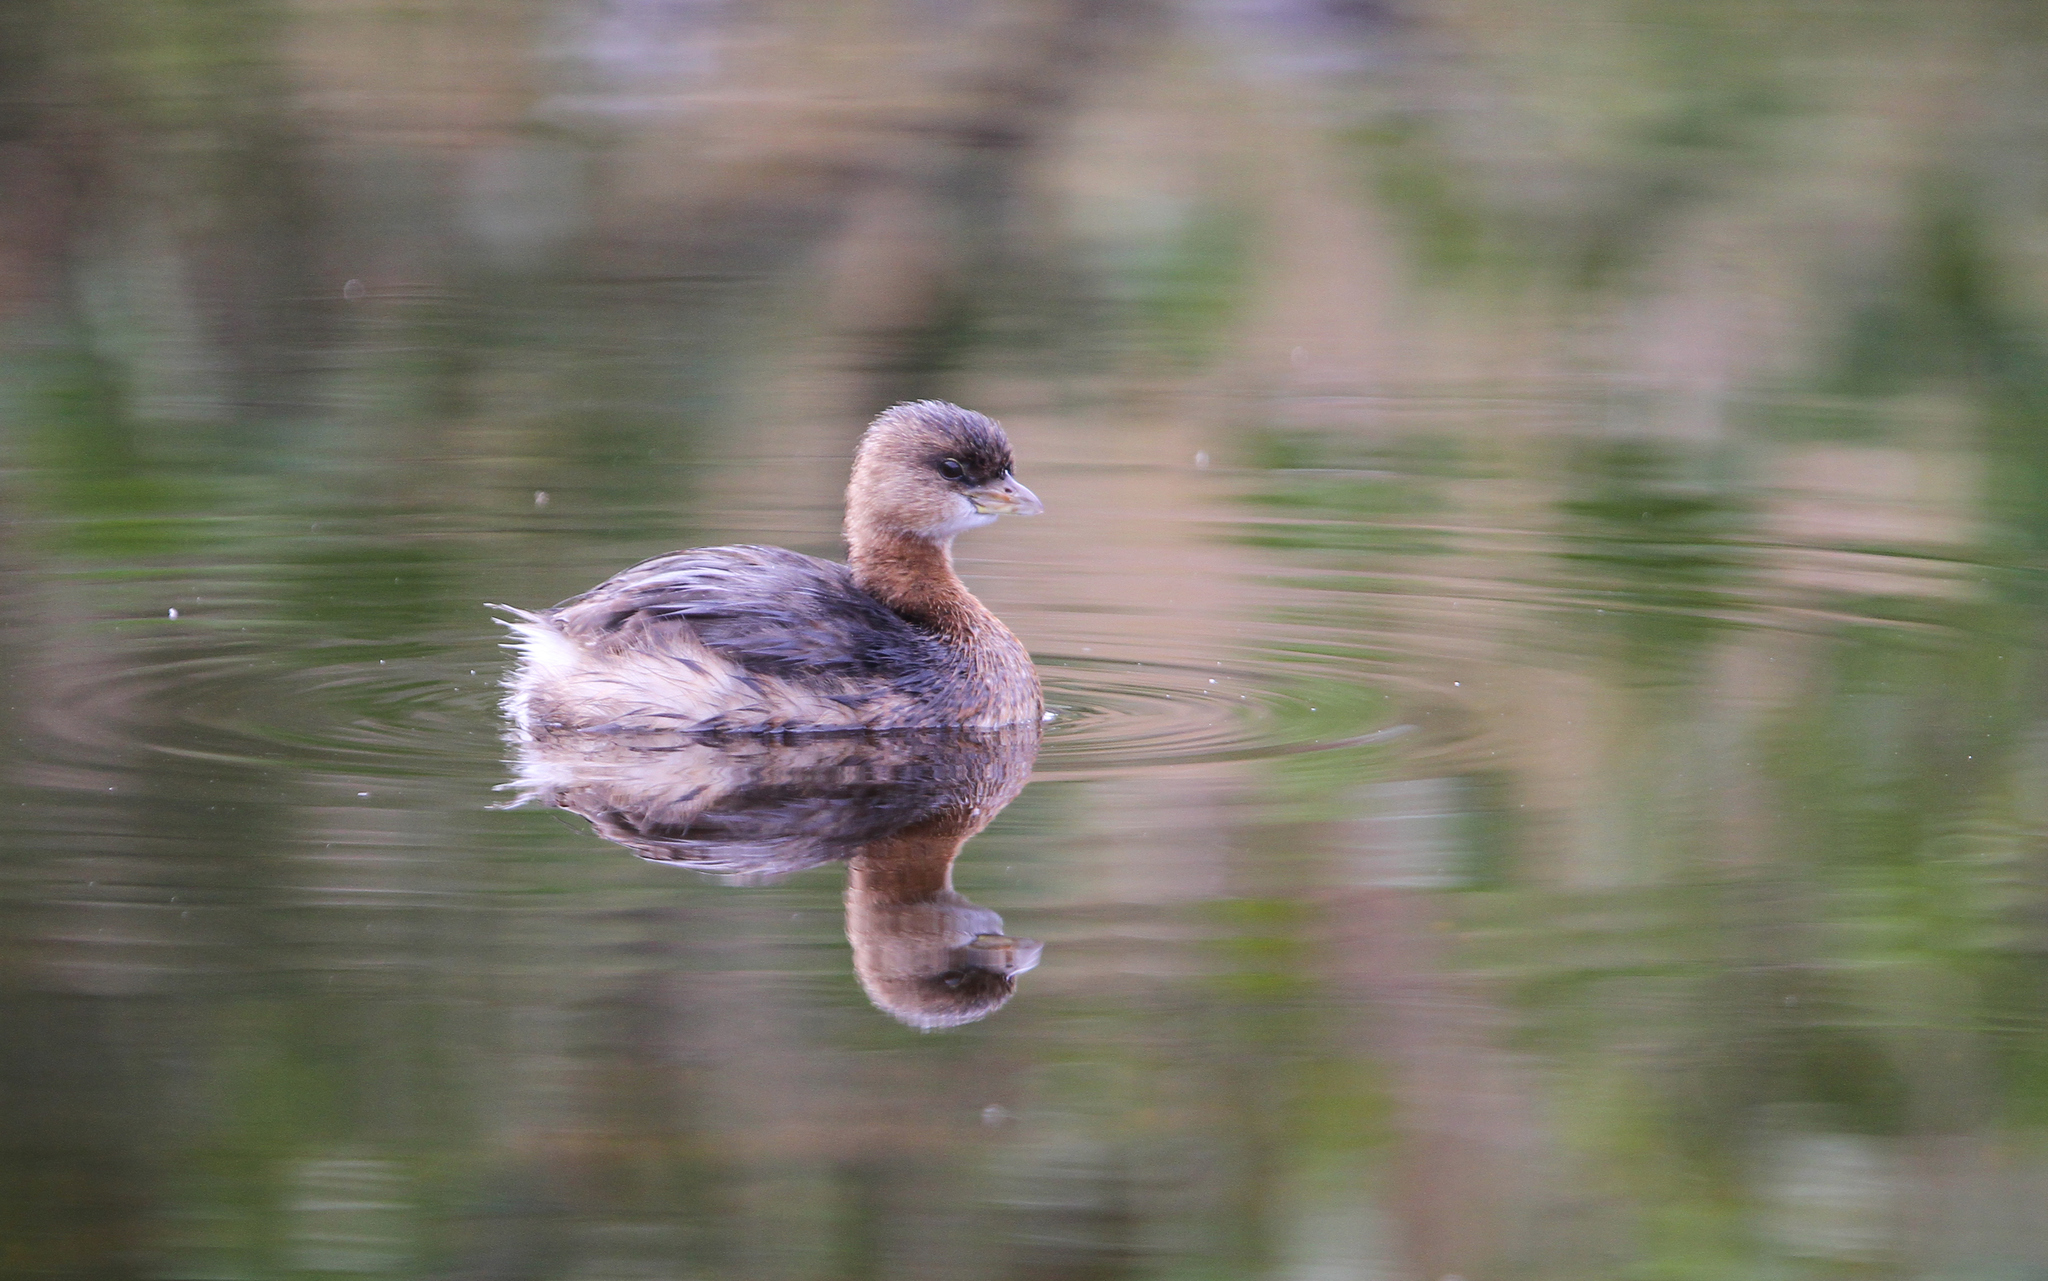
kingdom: Animalia
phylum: Chordata
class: Aves
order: Podicipediformes
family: Podicipedidae
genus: Podilymbus
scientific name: Podilymbus podiceps
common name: Pied-billed grebe
